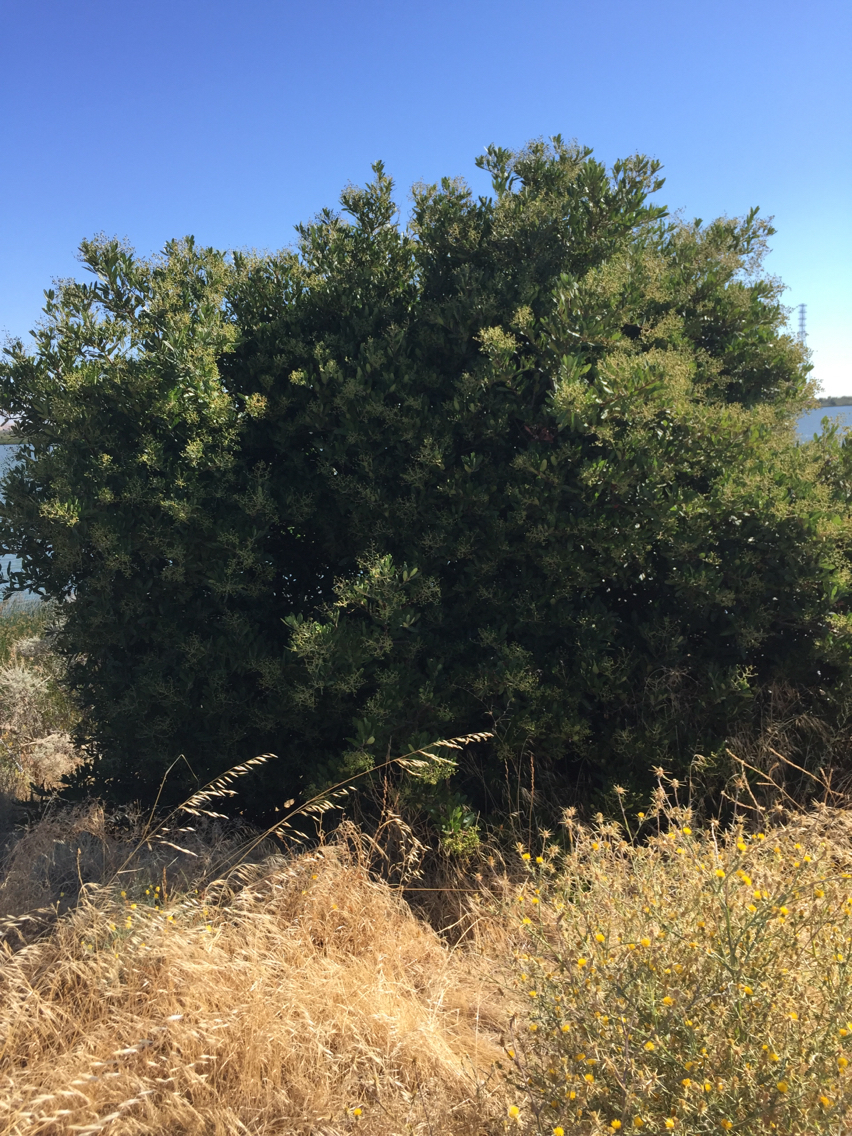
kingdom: Plantae
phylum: Tracheophyta
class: Magnoliopsida
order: Rosales
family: Rosaceae
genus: Heteromeles
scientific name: Heteromeles arbutifolia
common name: California-holly
